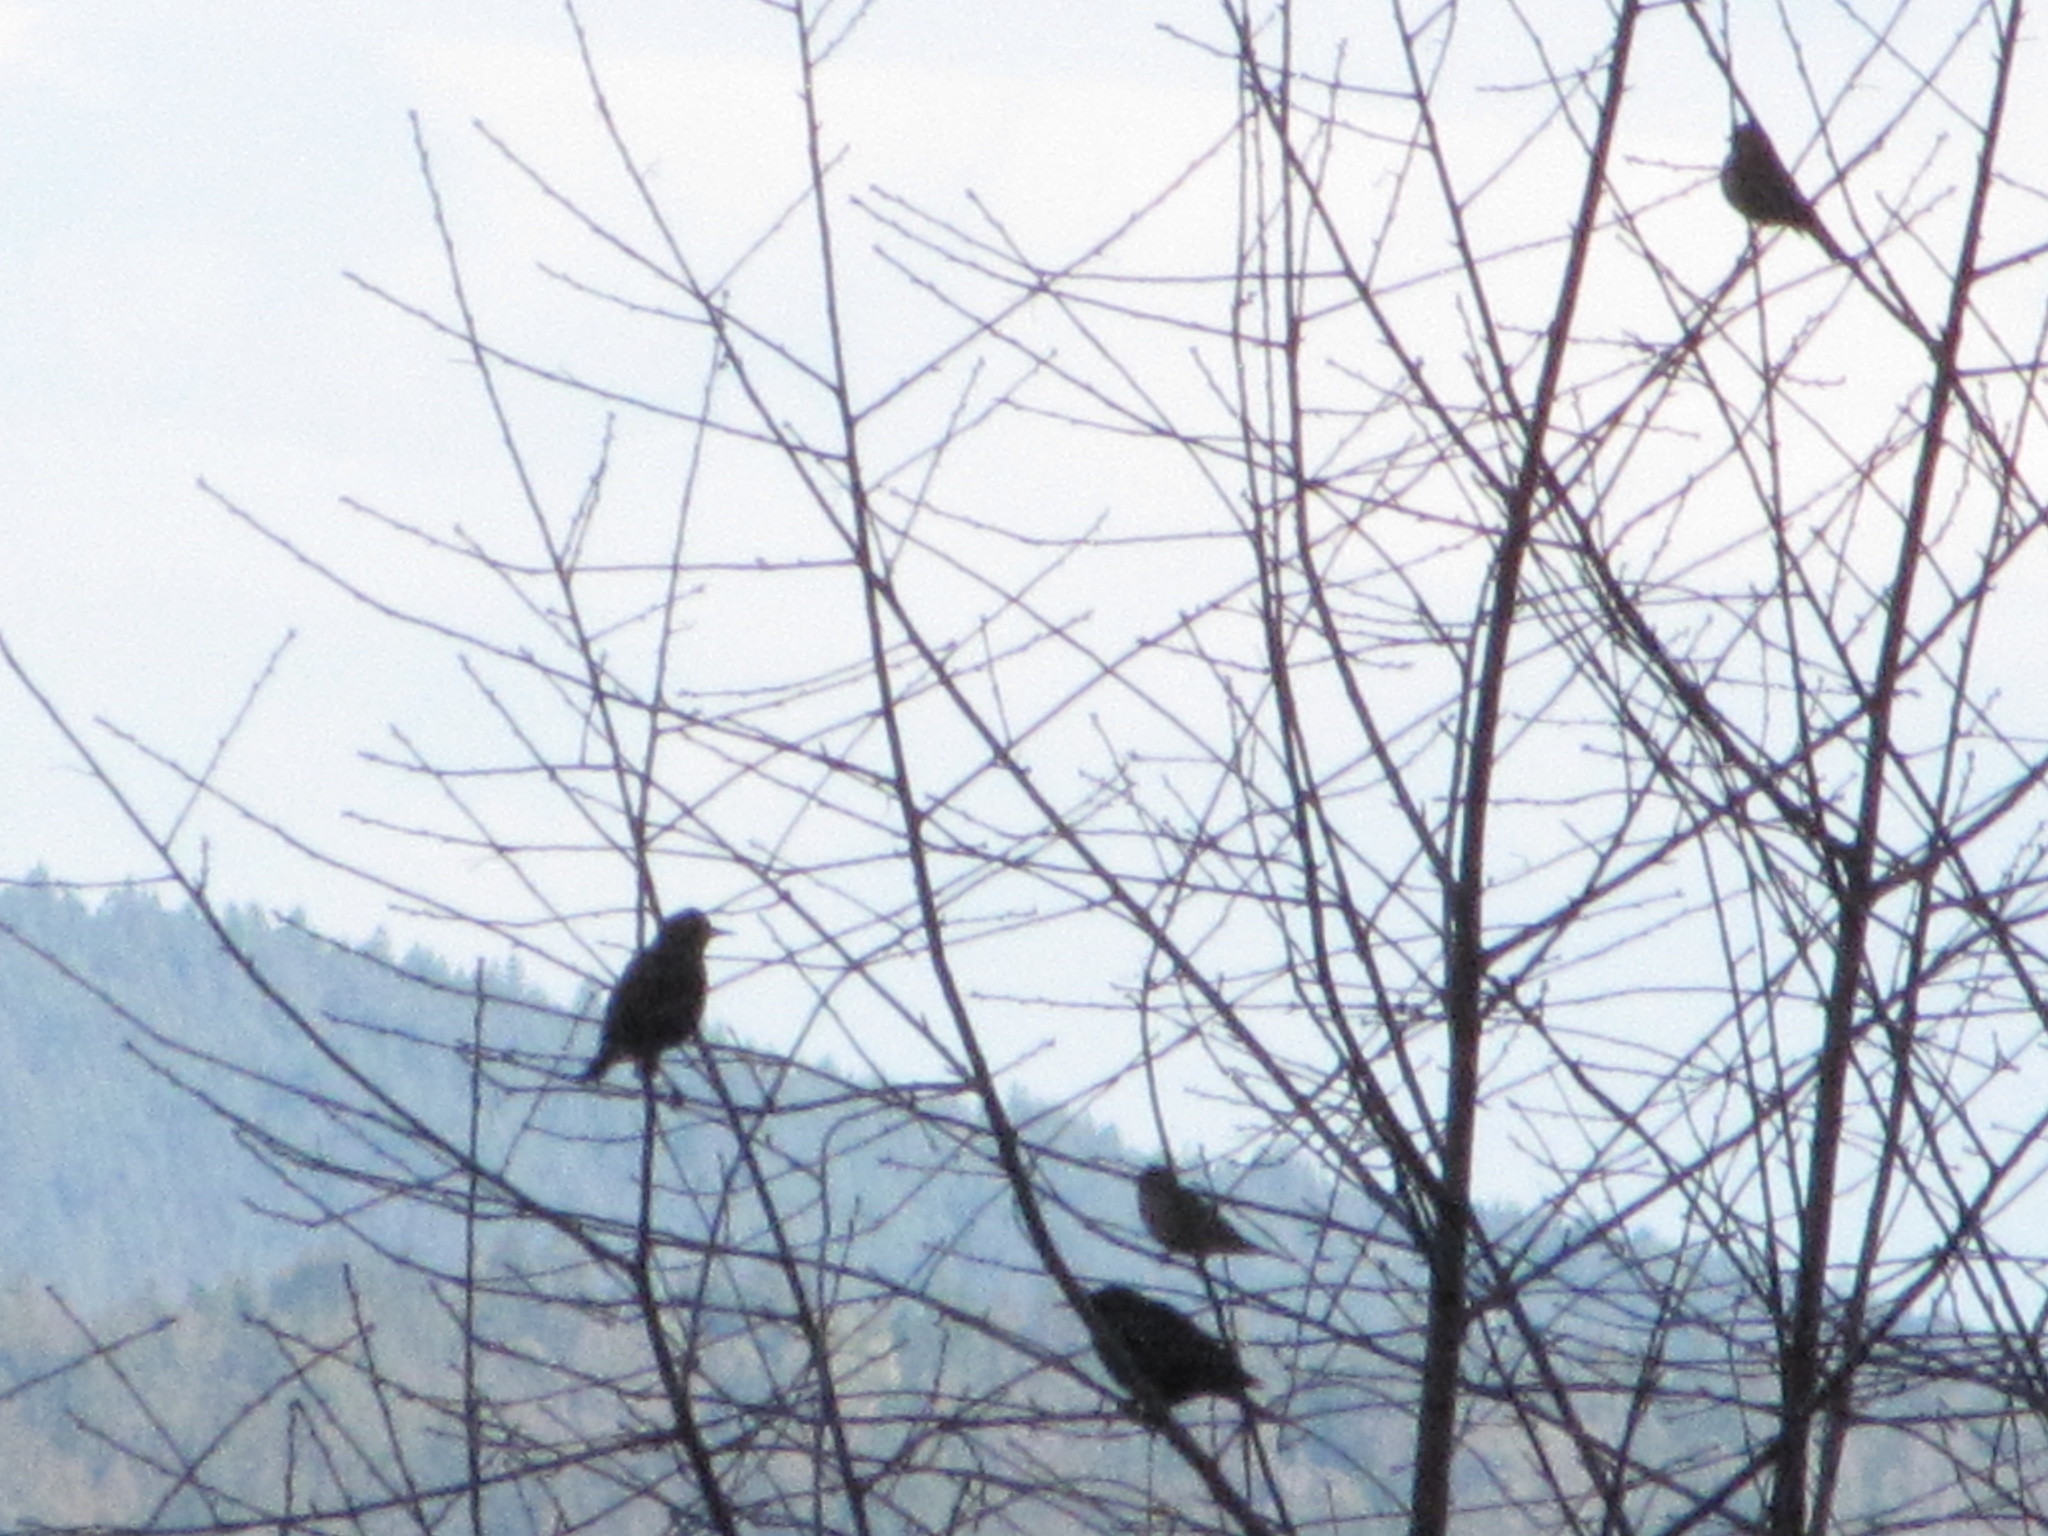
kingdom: Animalia
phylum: Chordata
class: Aves
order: Passeriformes
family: Sturnidae
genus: Sturnus
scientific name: Sturnus vulgaris
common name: Common starling
